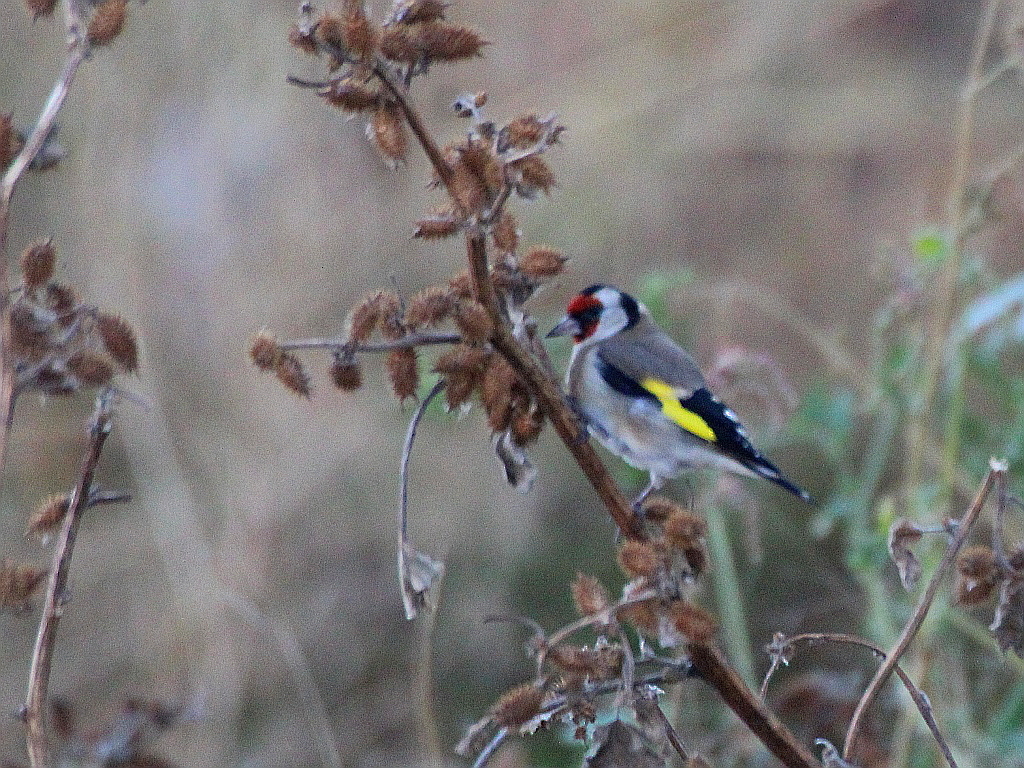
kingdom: Animalia
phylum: Chordata
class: Aves
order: Passeriformes
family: Fringillidae
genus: Carduelis
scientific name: Carduelis carduelis
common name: European goldfinch
